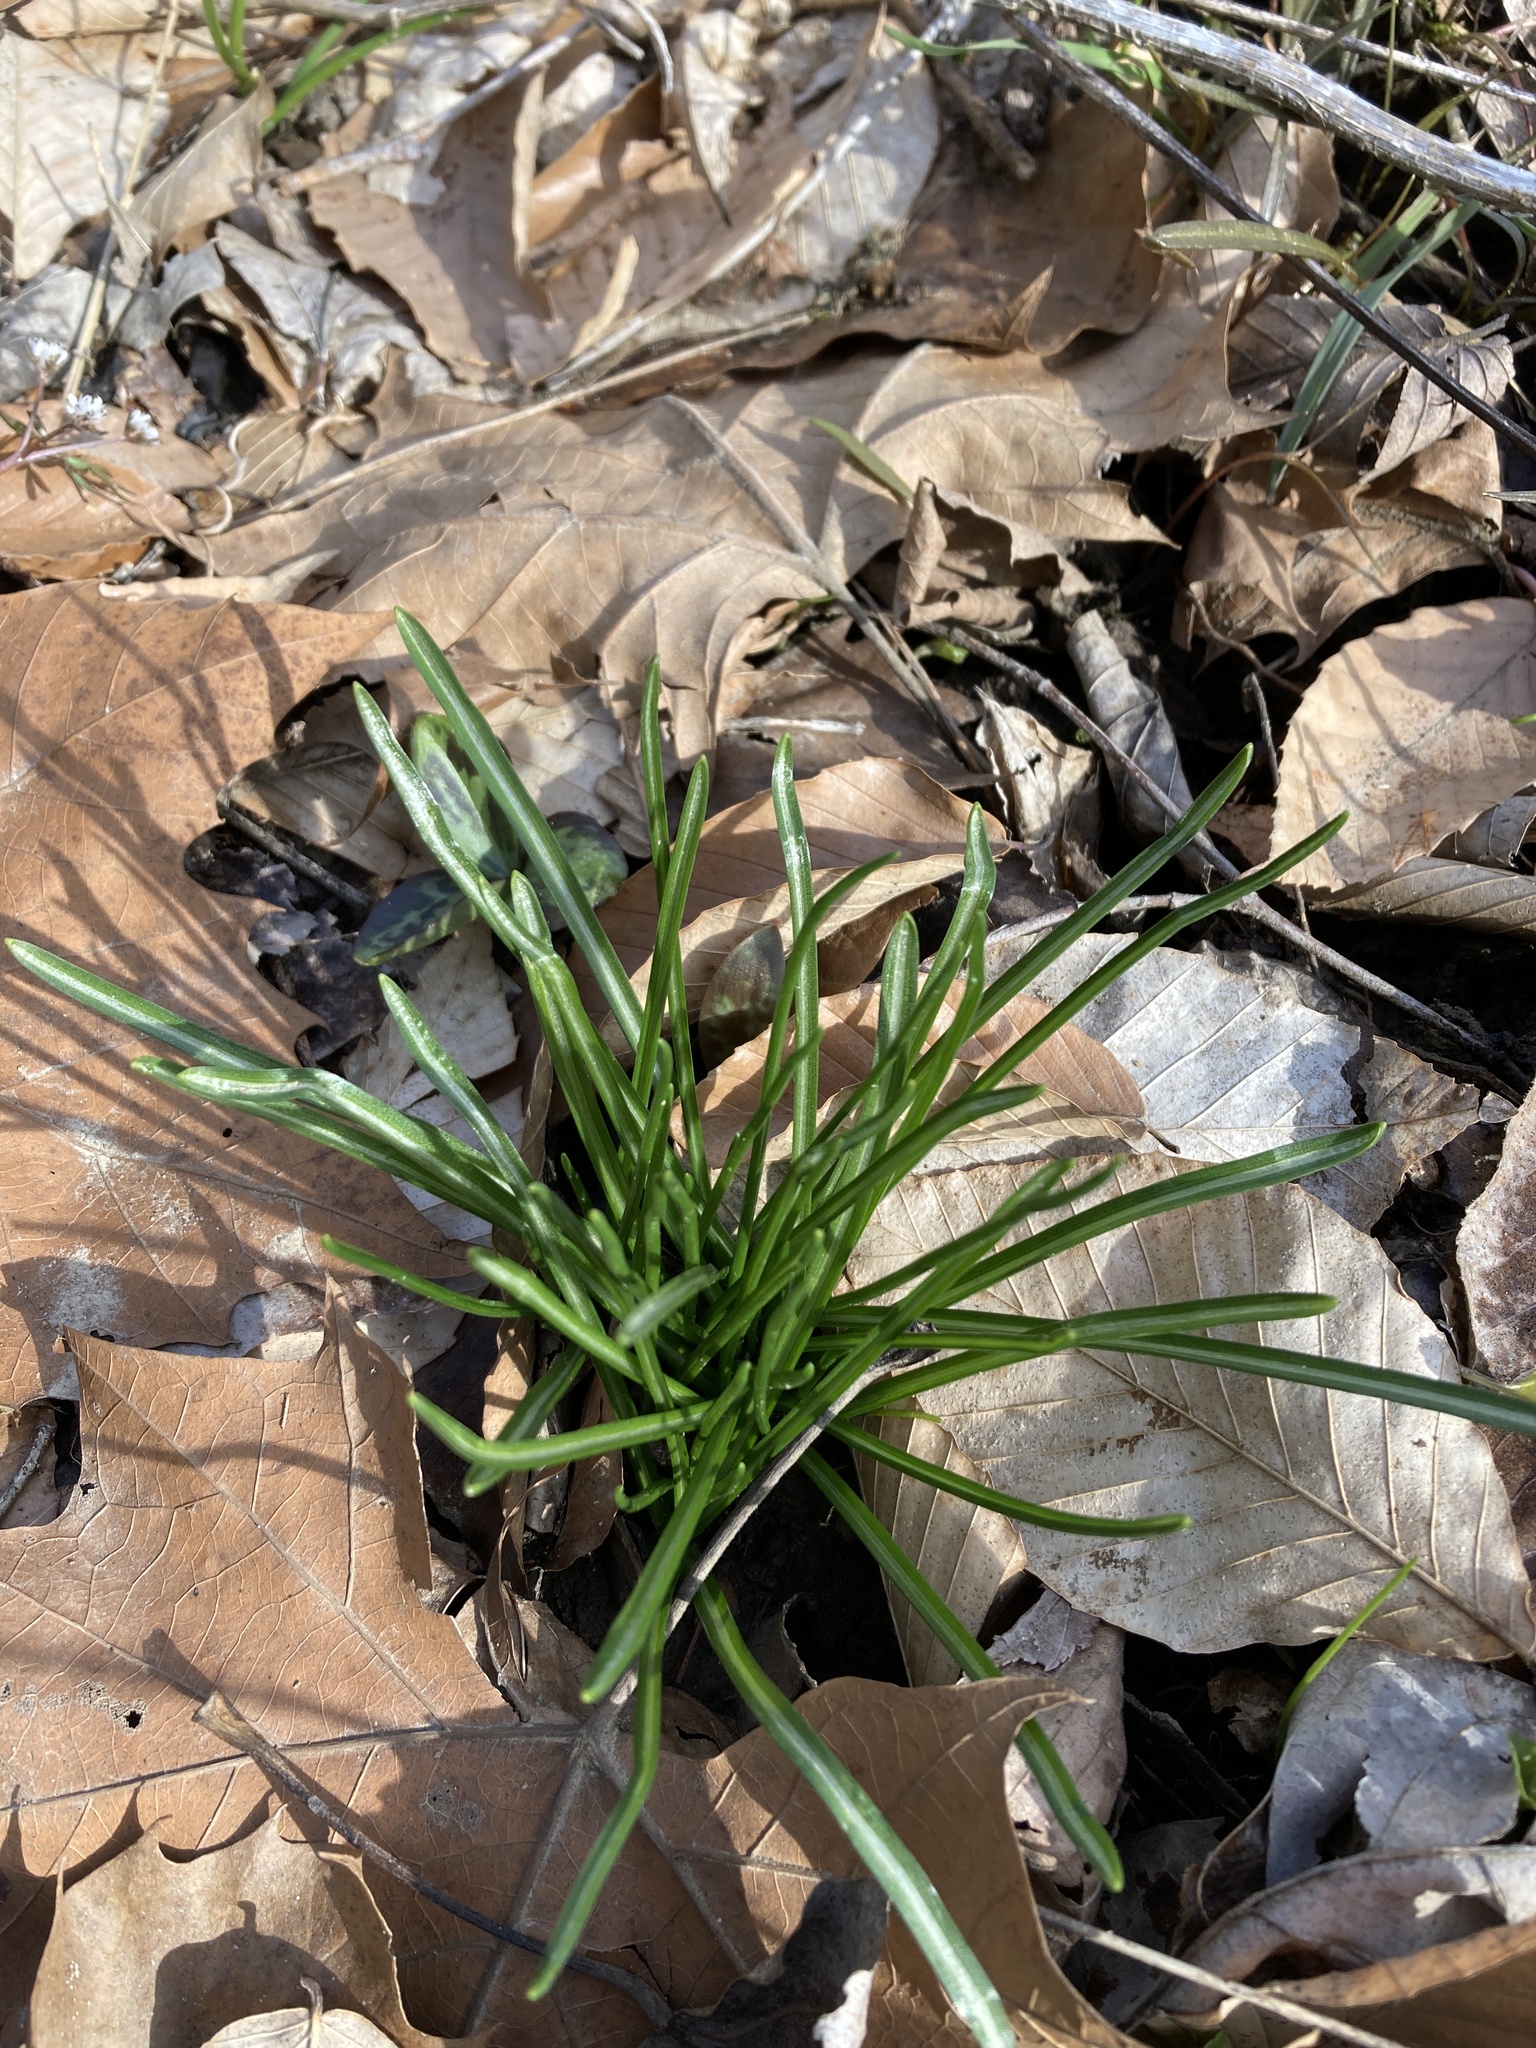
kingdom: Plantae
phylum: Tracheophyta
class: Liliopsida
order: Asparagales
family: Asparagaceae
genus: Ornithogalum
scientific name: Ornithogalum umbellatum
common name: Garden star-of-bethlehem
